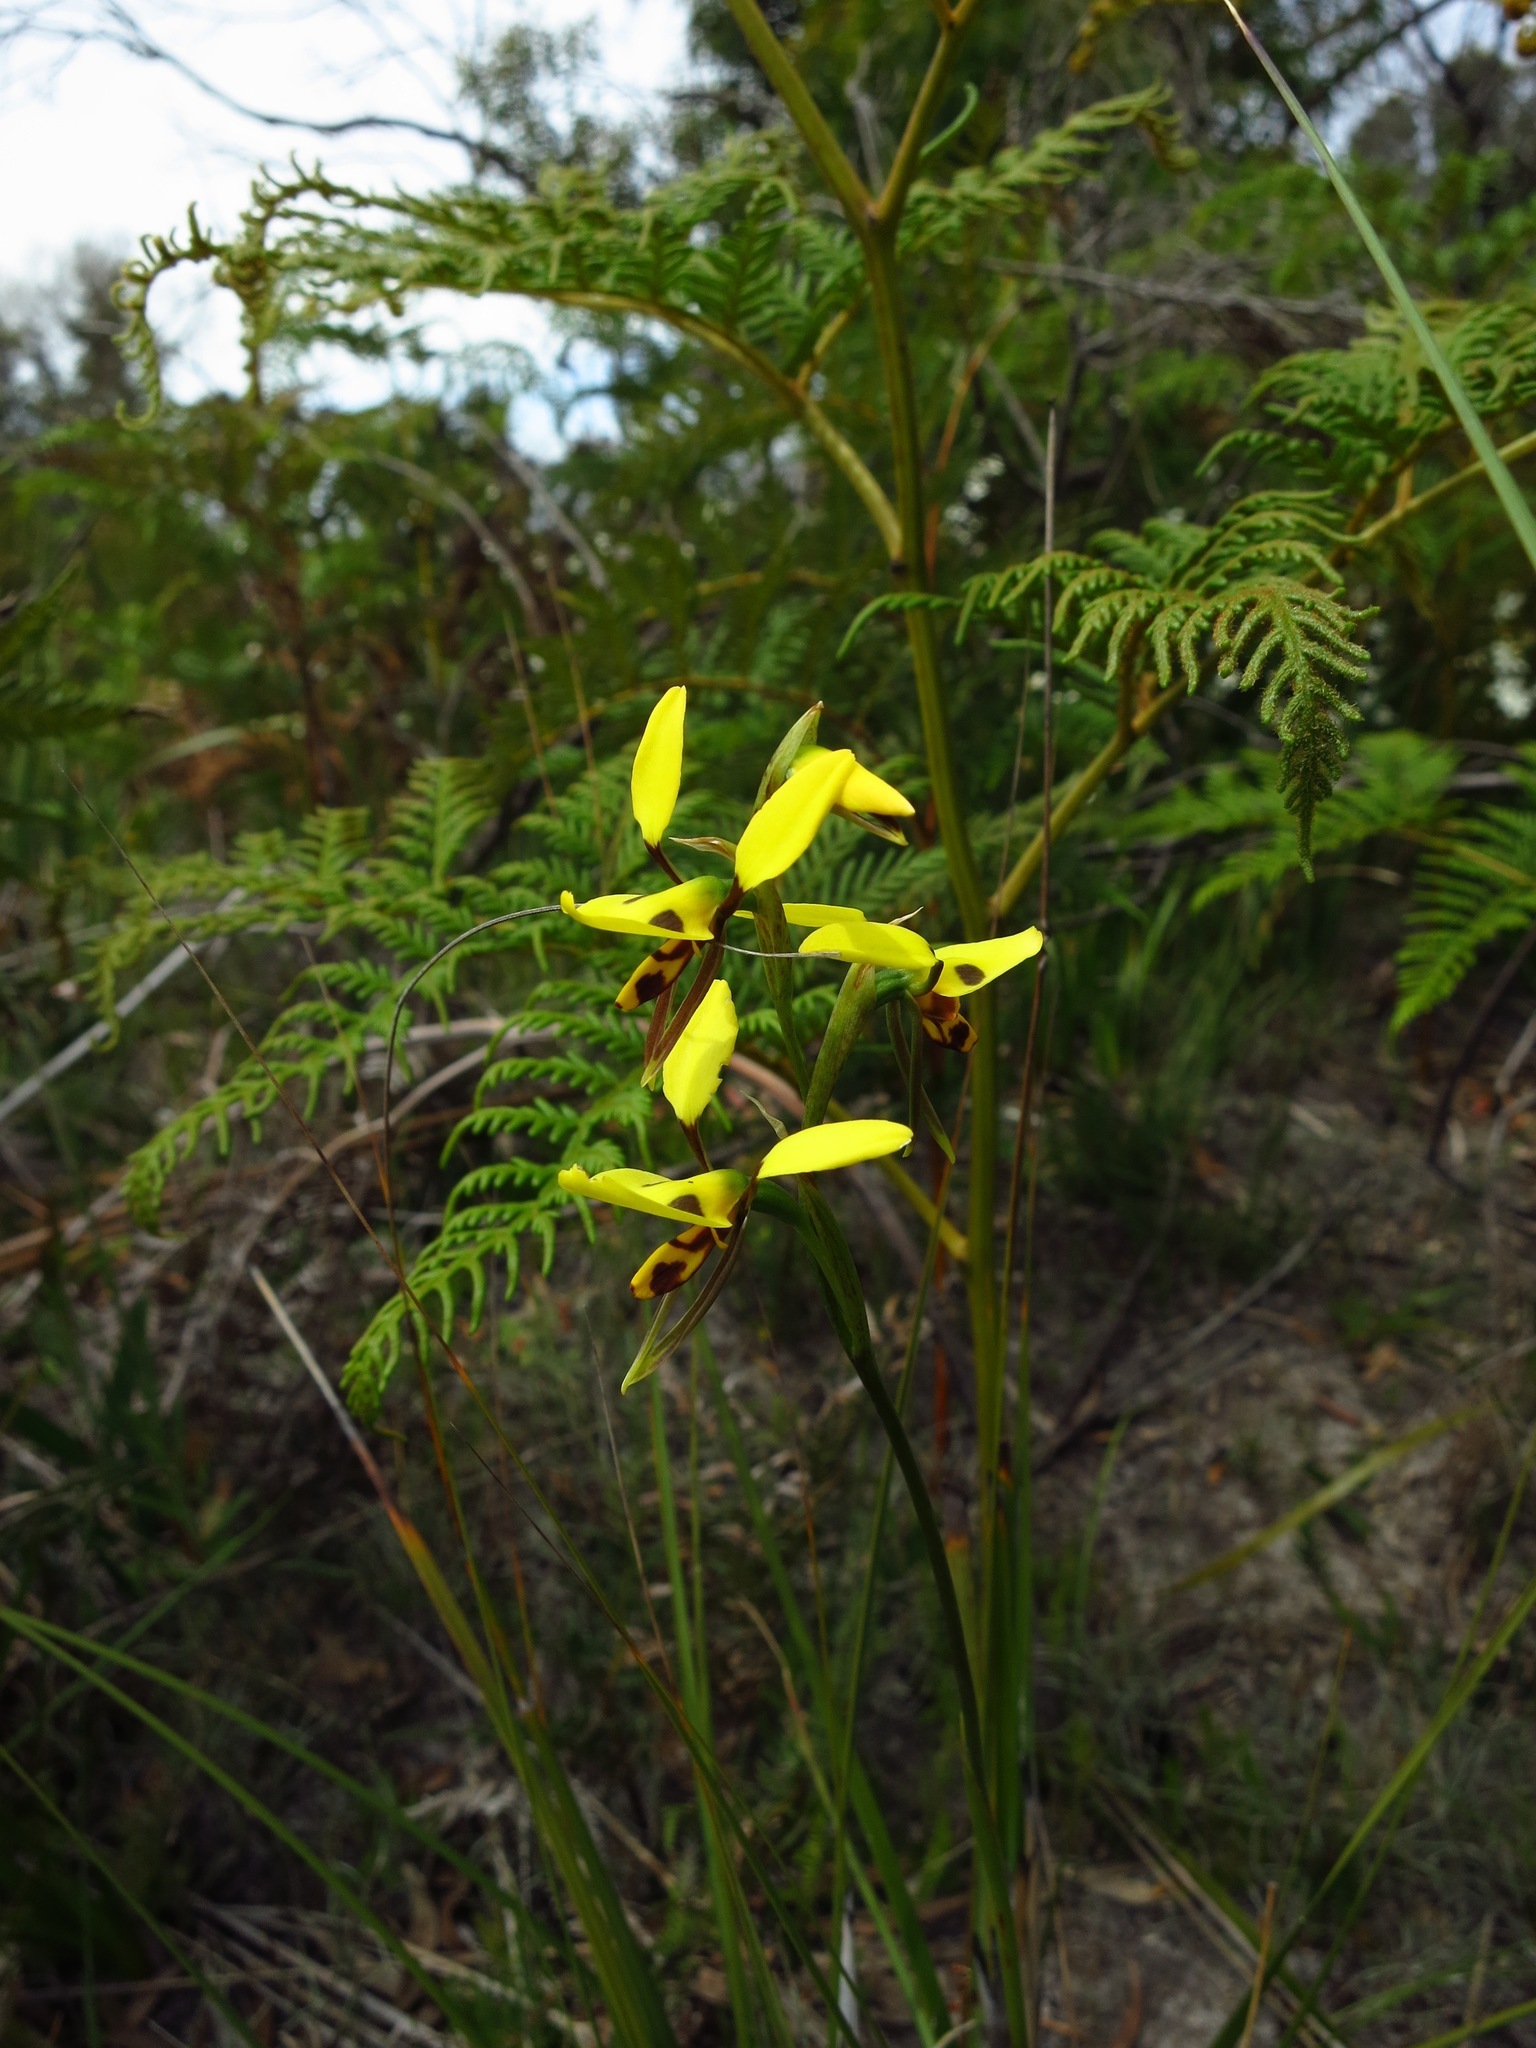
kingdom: Plantae
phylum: Tracheophyta
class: Liliopsida
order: Asparagales
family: Orchidaceae
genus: Diuris
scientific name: Diuris sulphurea
